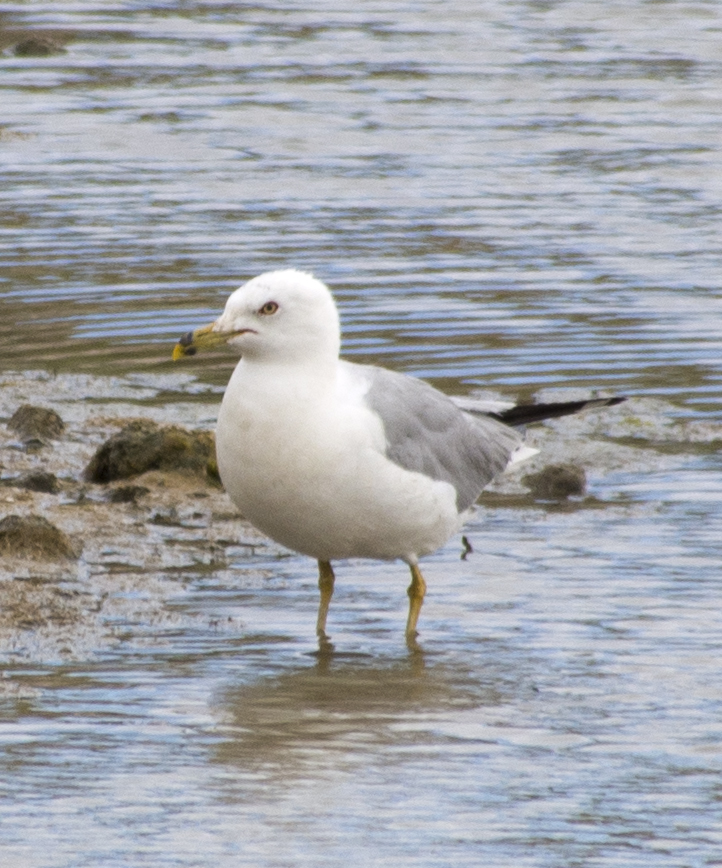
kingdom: Animalia
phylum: Chordata
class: Aves
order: Charadriiformes
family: Laridae
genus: Larus
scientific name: Larus delawarensis
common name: Ring-billed gull
